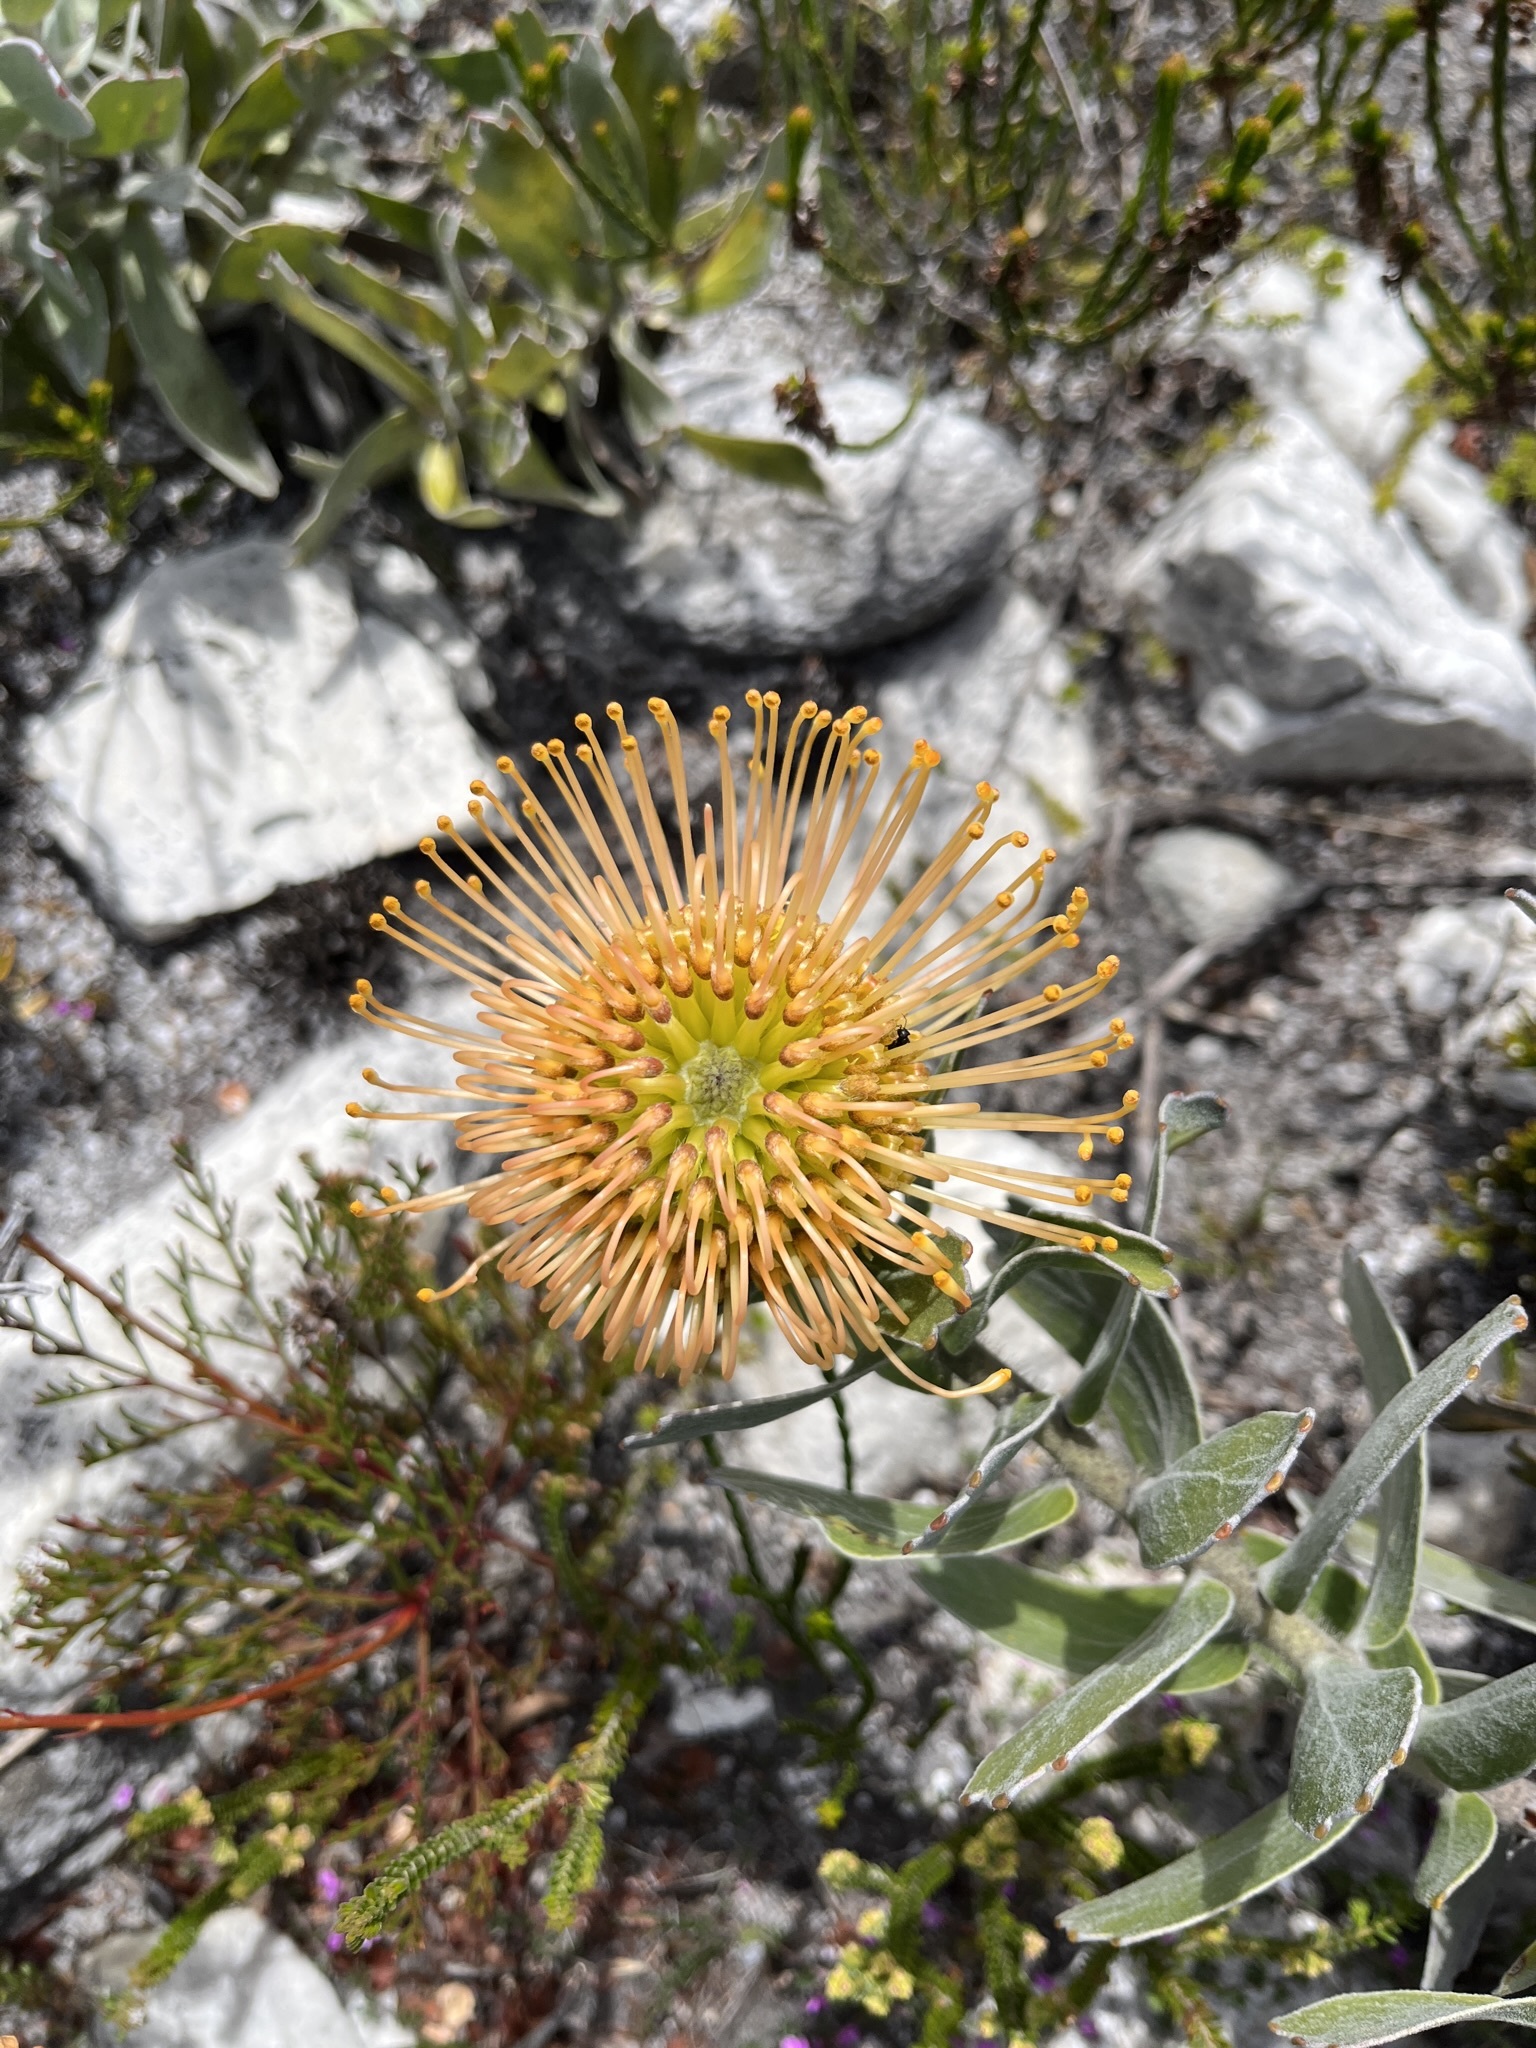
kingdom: Plantae
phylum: Tracheophyta
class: Magnoliopsida
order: Proteales
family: Proteaceae
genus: Leucospermum
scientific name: Leucospermum patersonii
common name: False tree pincushion
